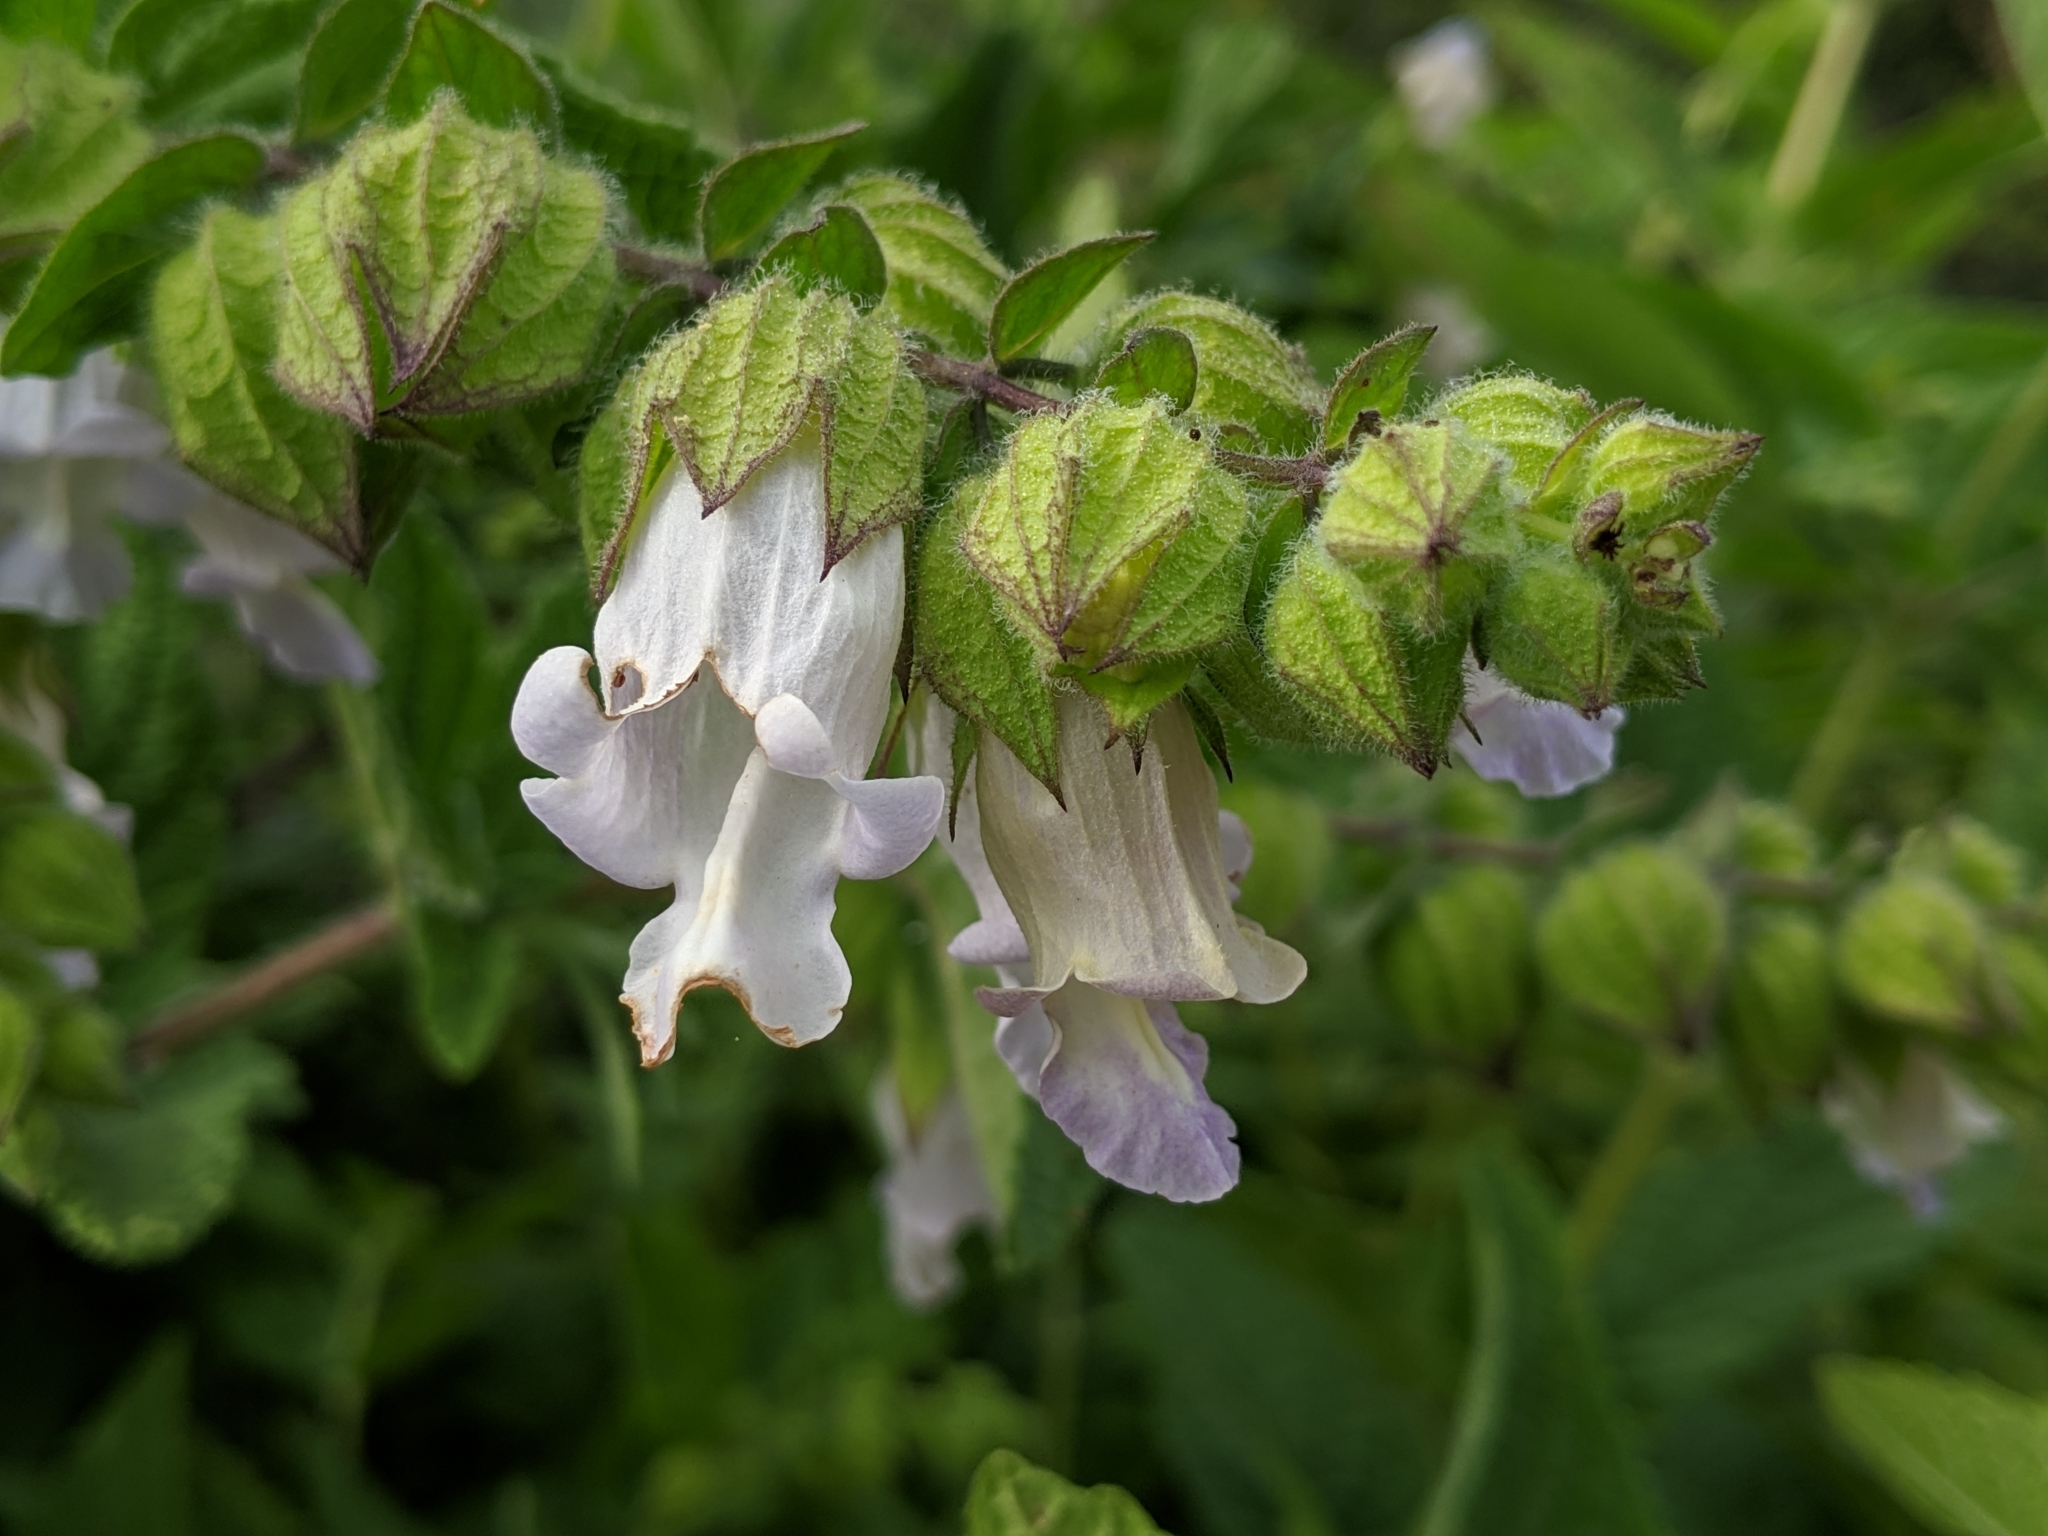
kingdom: Plantae
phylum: Tracheophyta
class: Magnoliopsida
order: Lamiales
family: Lamiaceae
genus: Lepechinia
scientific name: Lepechinia calycina
